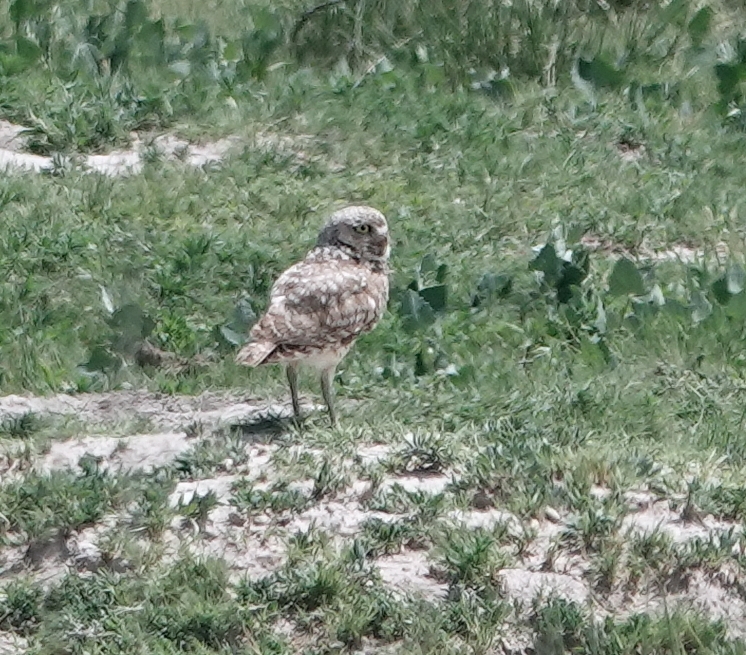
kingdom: Animalia
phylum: Chordata
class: Aves
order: Strigiformes
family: Strigidae
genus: Athene
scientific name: Athene cunicularia
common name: Burrowing owl
